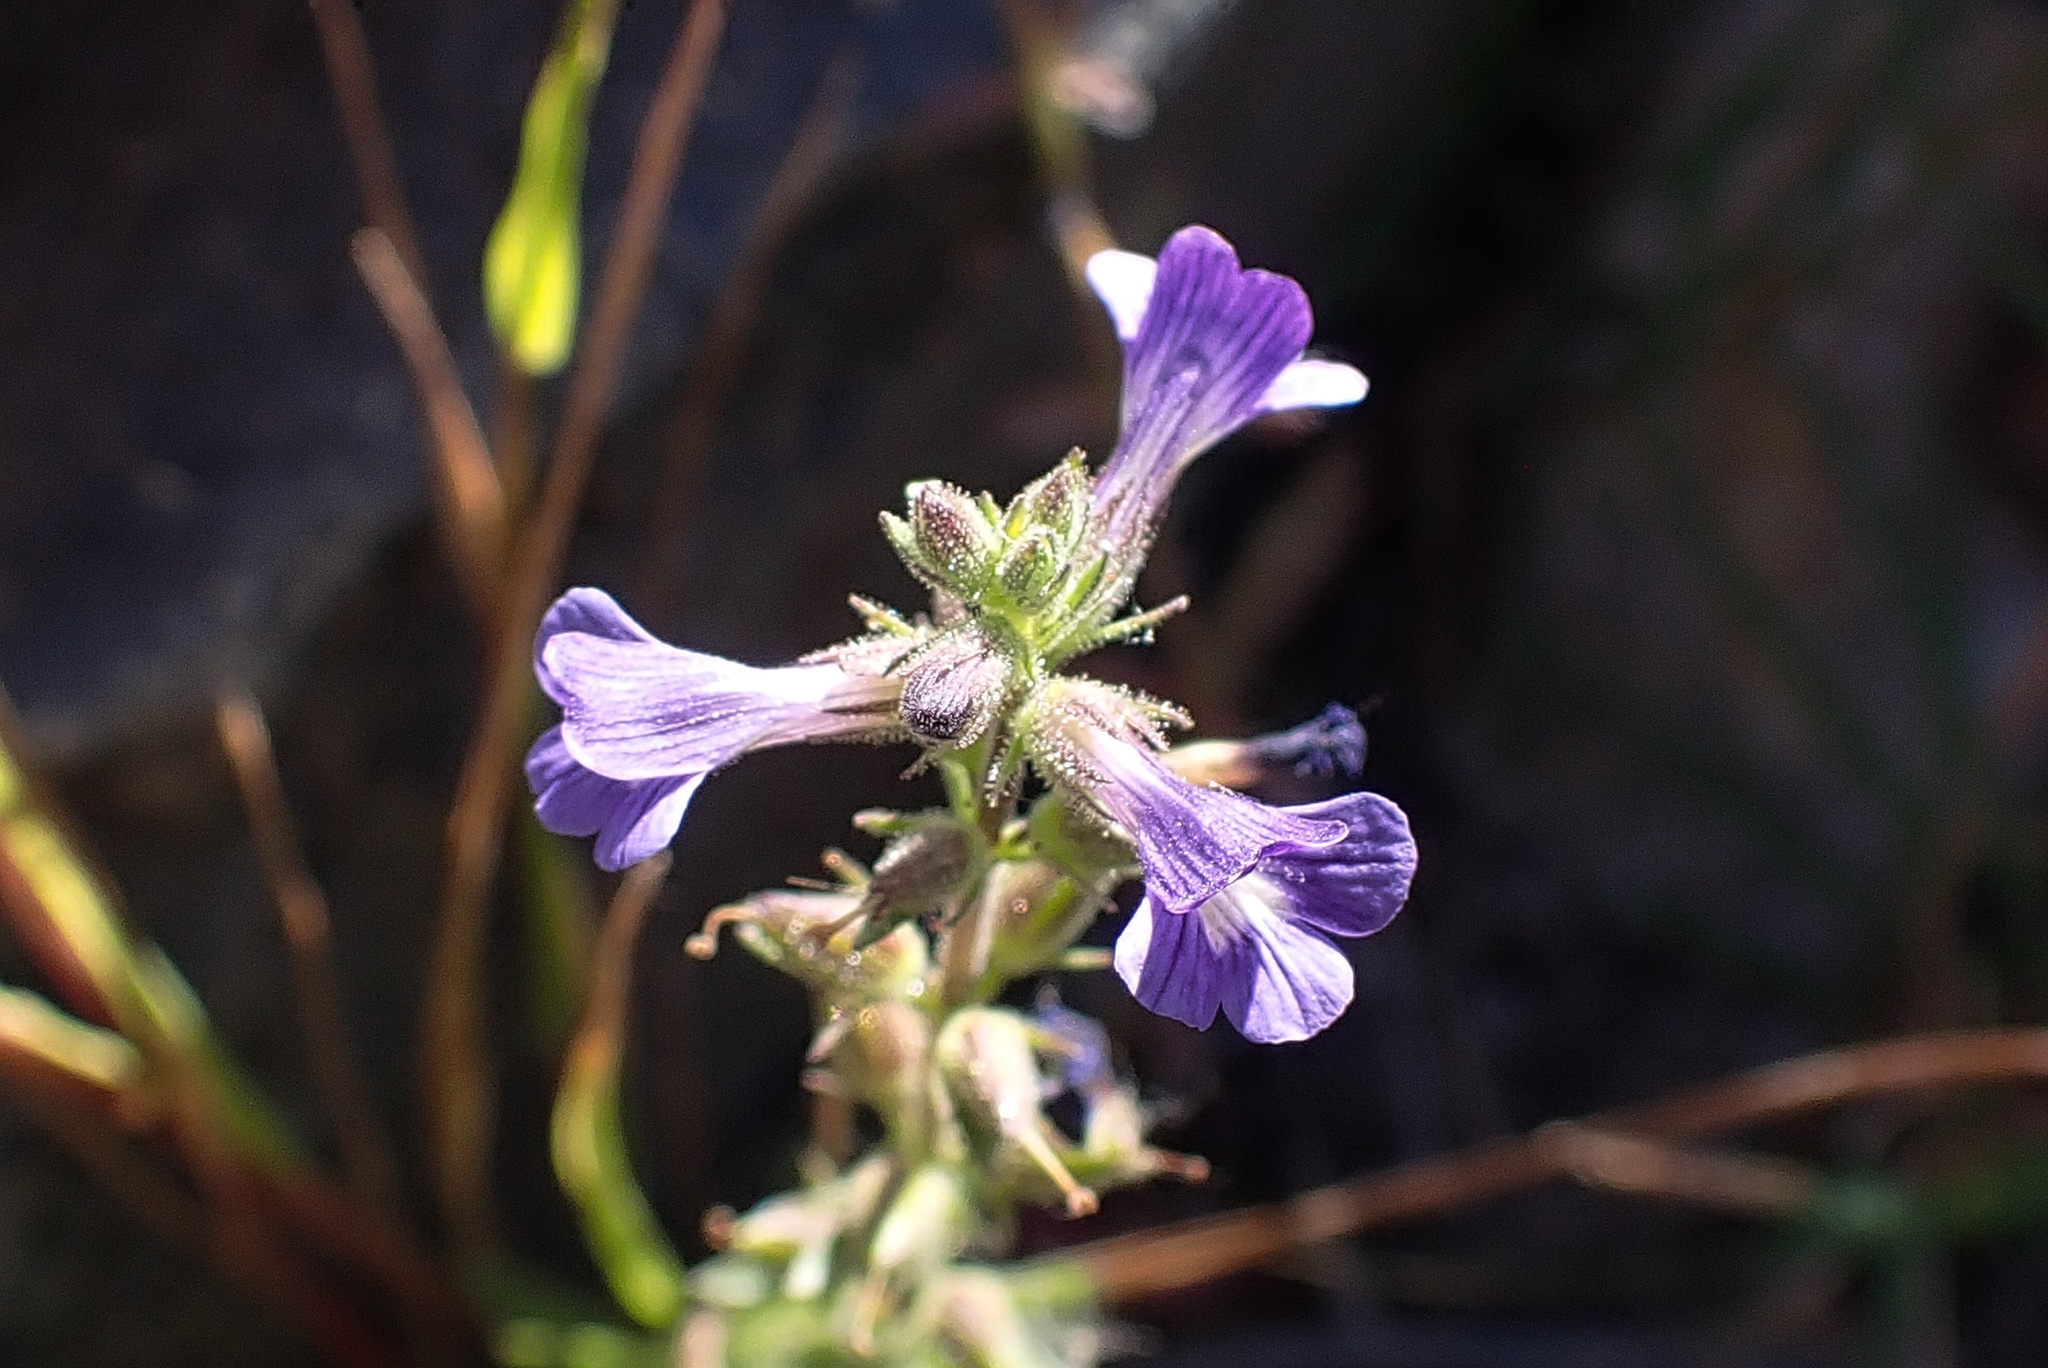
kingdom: Plantae
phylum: Tracheophyta
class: Magnoliopsida
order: Lamiales
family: Plantaginaceae
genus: Stemodia
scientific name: Stemodia durantifolia
